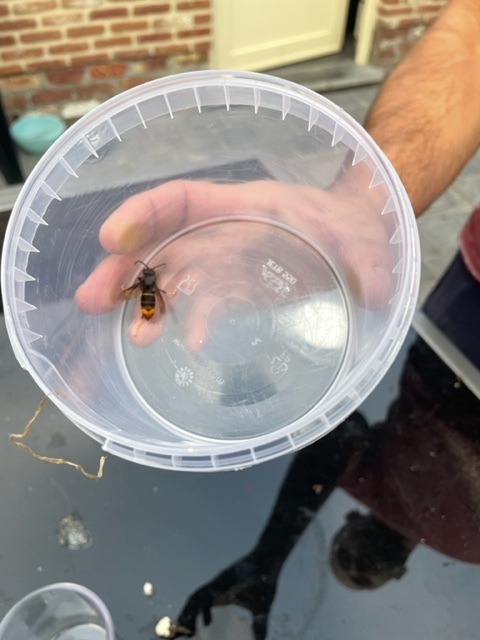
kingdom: Animalia
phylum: Arthropoda
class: Insecta
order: Hymenoptera
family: Vespidae
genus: Vespa
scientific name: Vespa velutina
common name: Asian hornet
